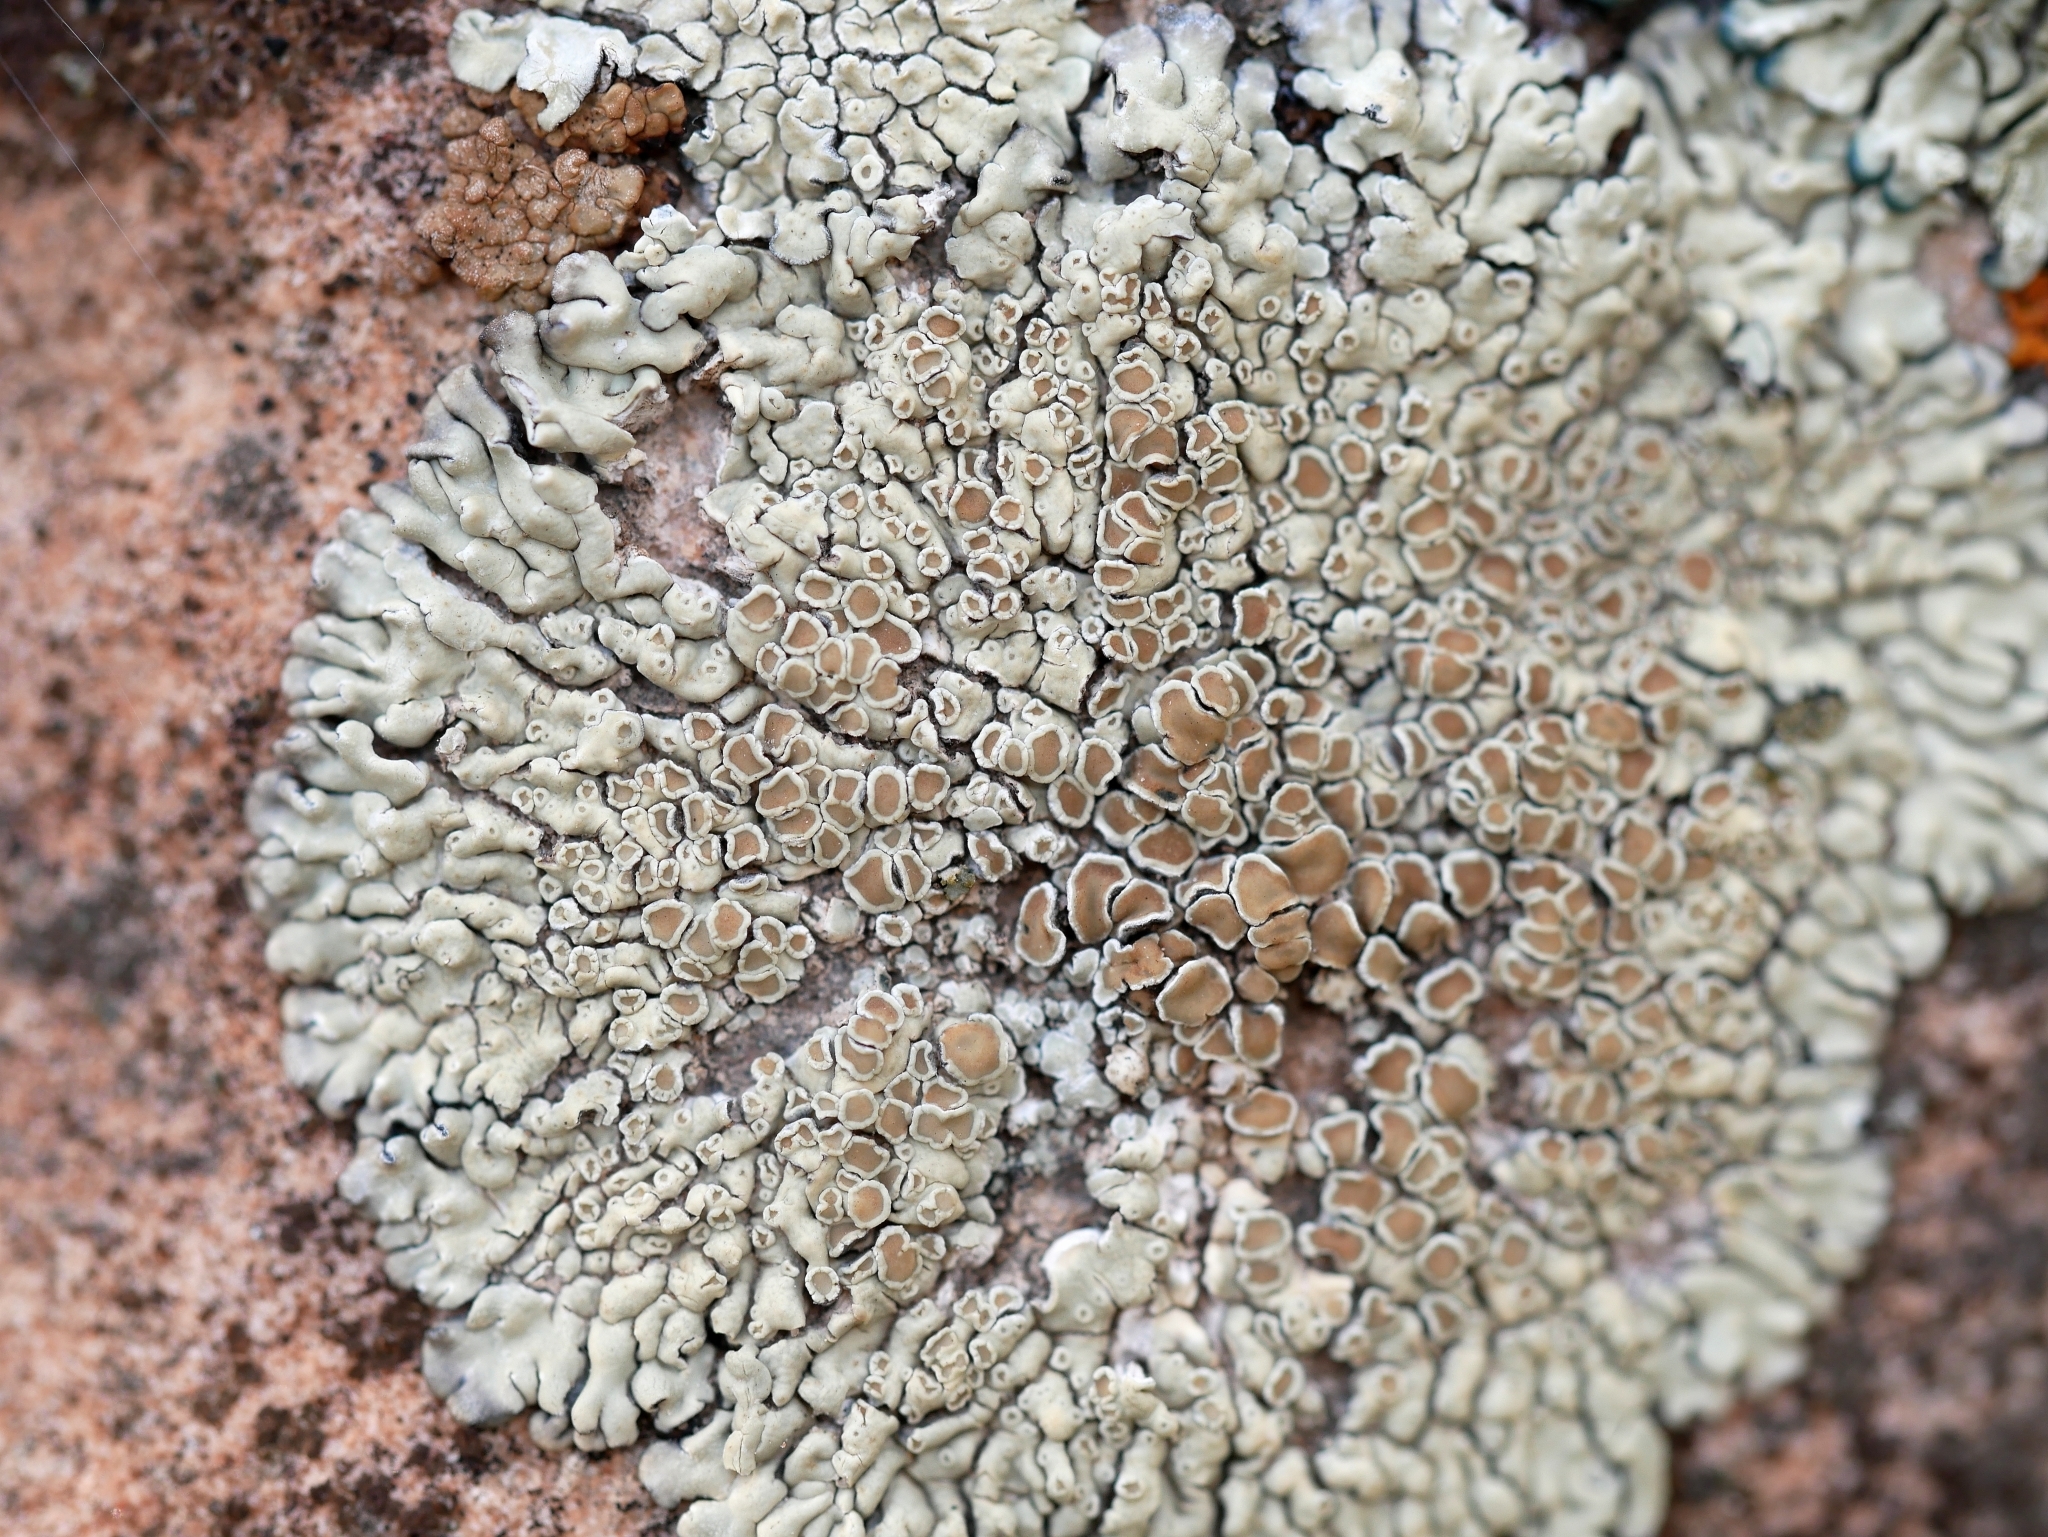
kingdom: Fungi
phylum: Ascomycota
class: Lecanoromycetes
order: Lecanorales
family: Lecanoraceae
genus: Protoparmeliopsis
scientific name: Protoparmeliopsis muralis
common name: Stonewall rim lichen
